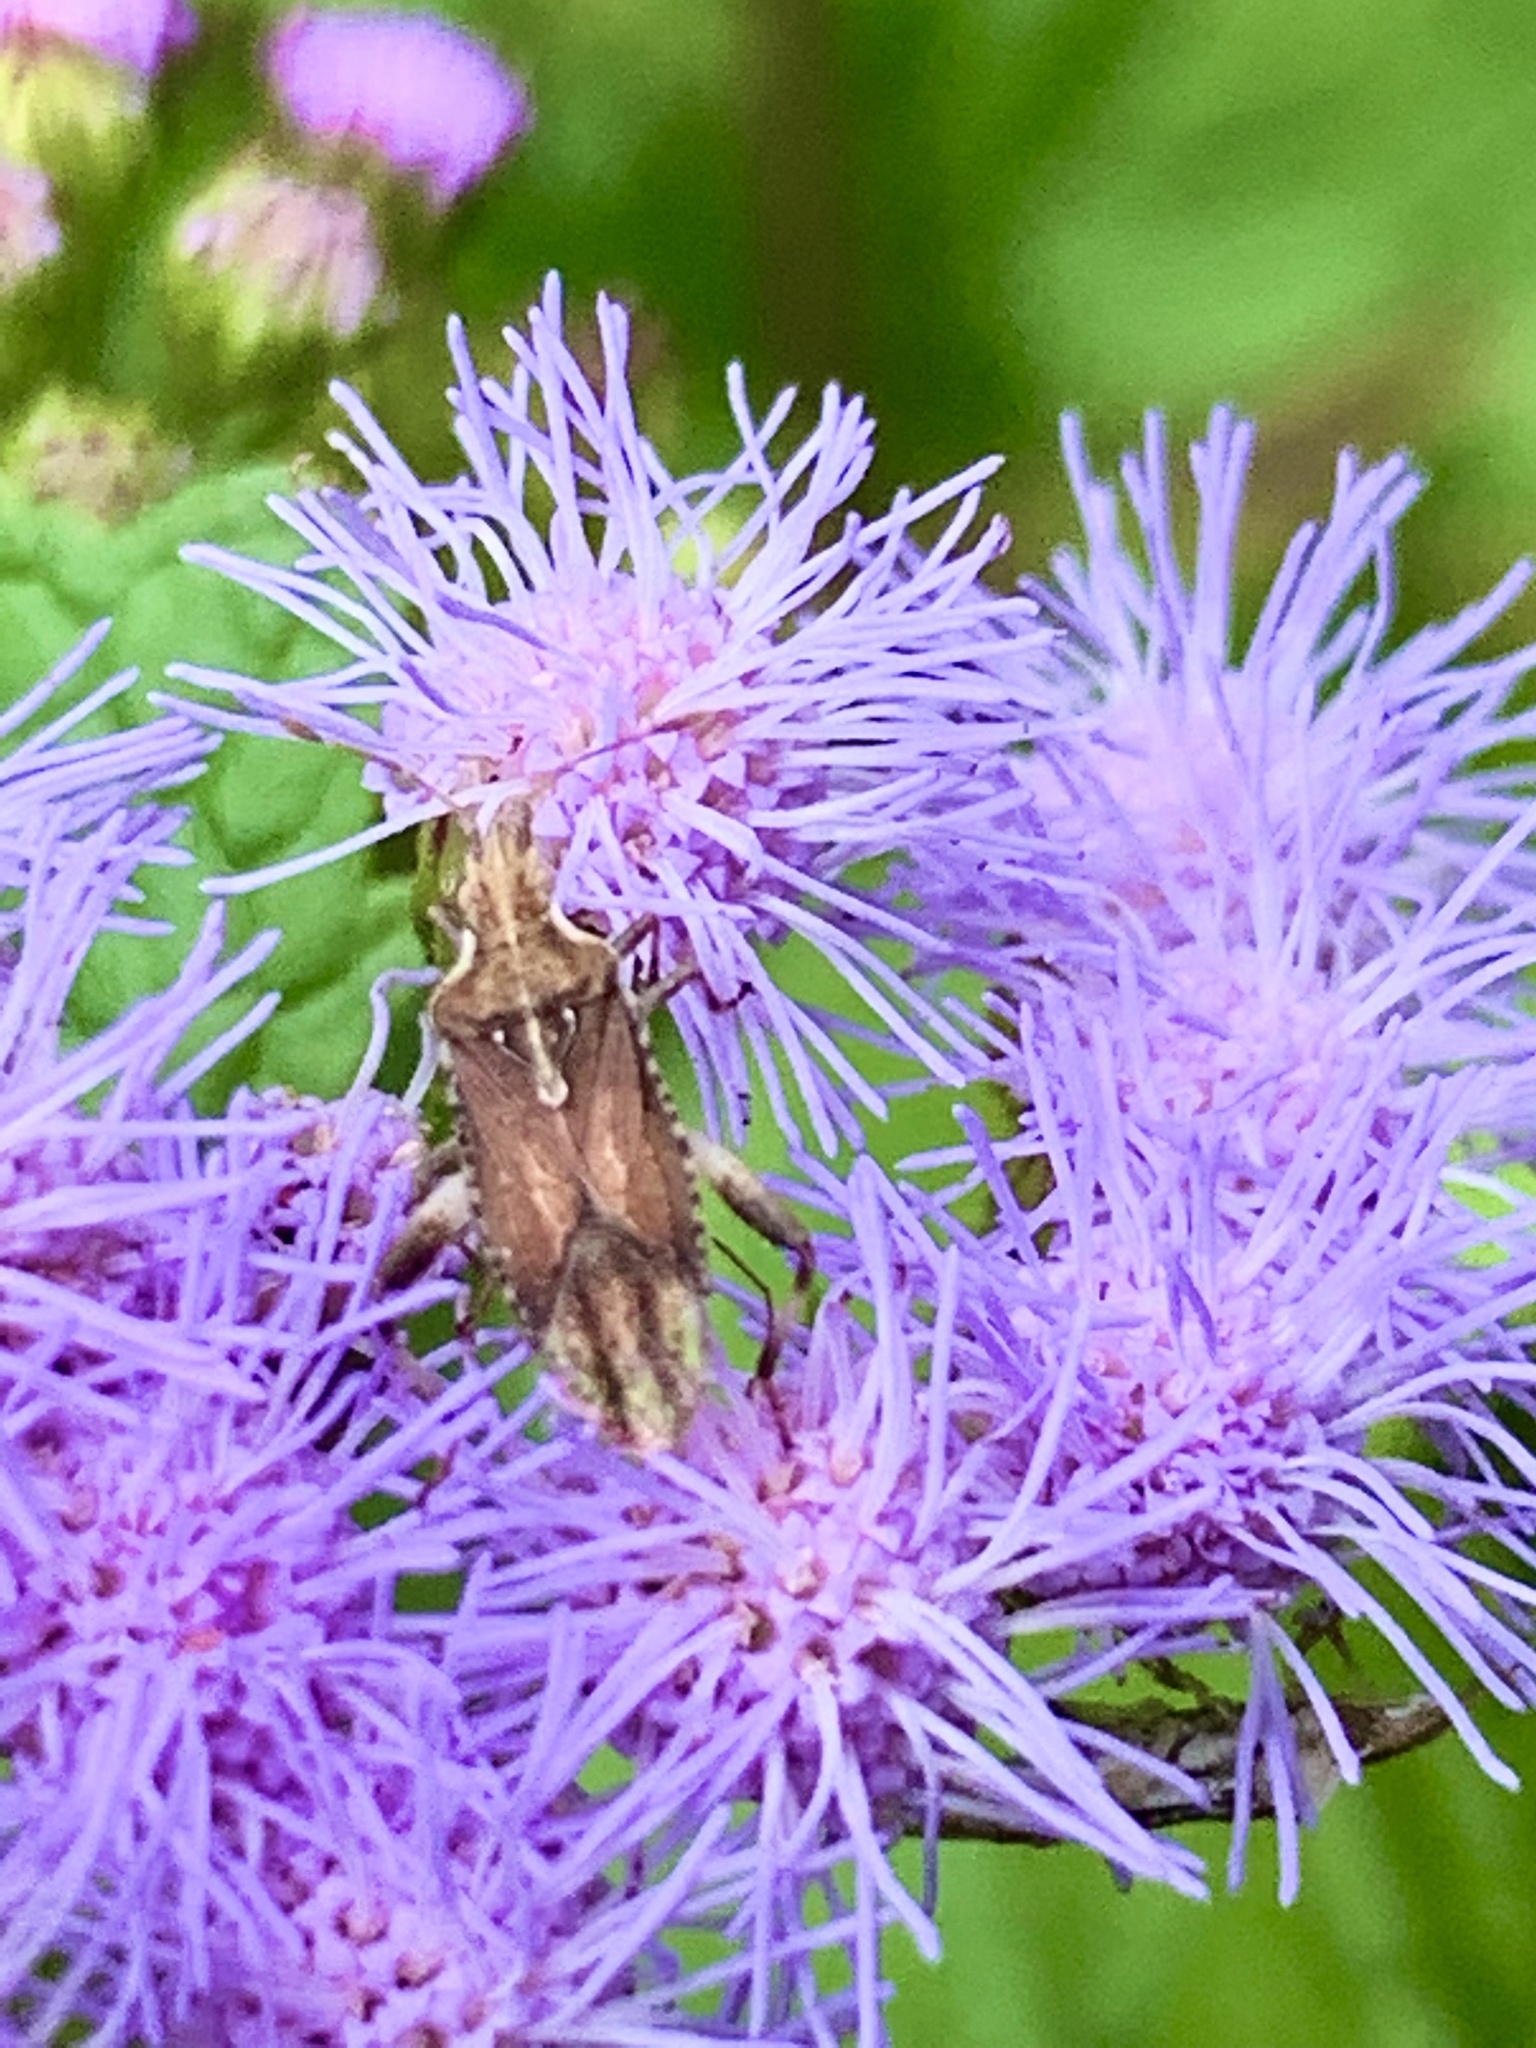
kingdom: Animalia
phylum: Arthropoda
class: Insecta
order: Hemiptera
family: Rhopalidae
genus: Harmostes
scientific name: Harmostes fraterculus
